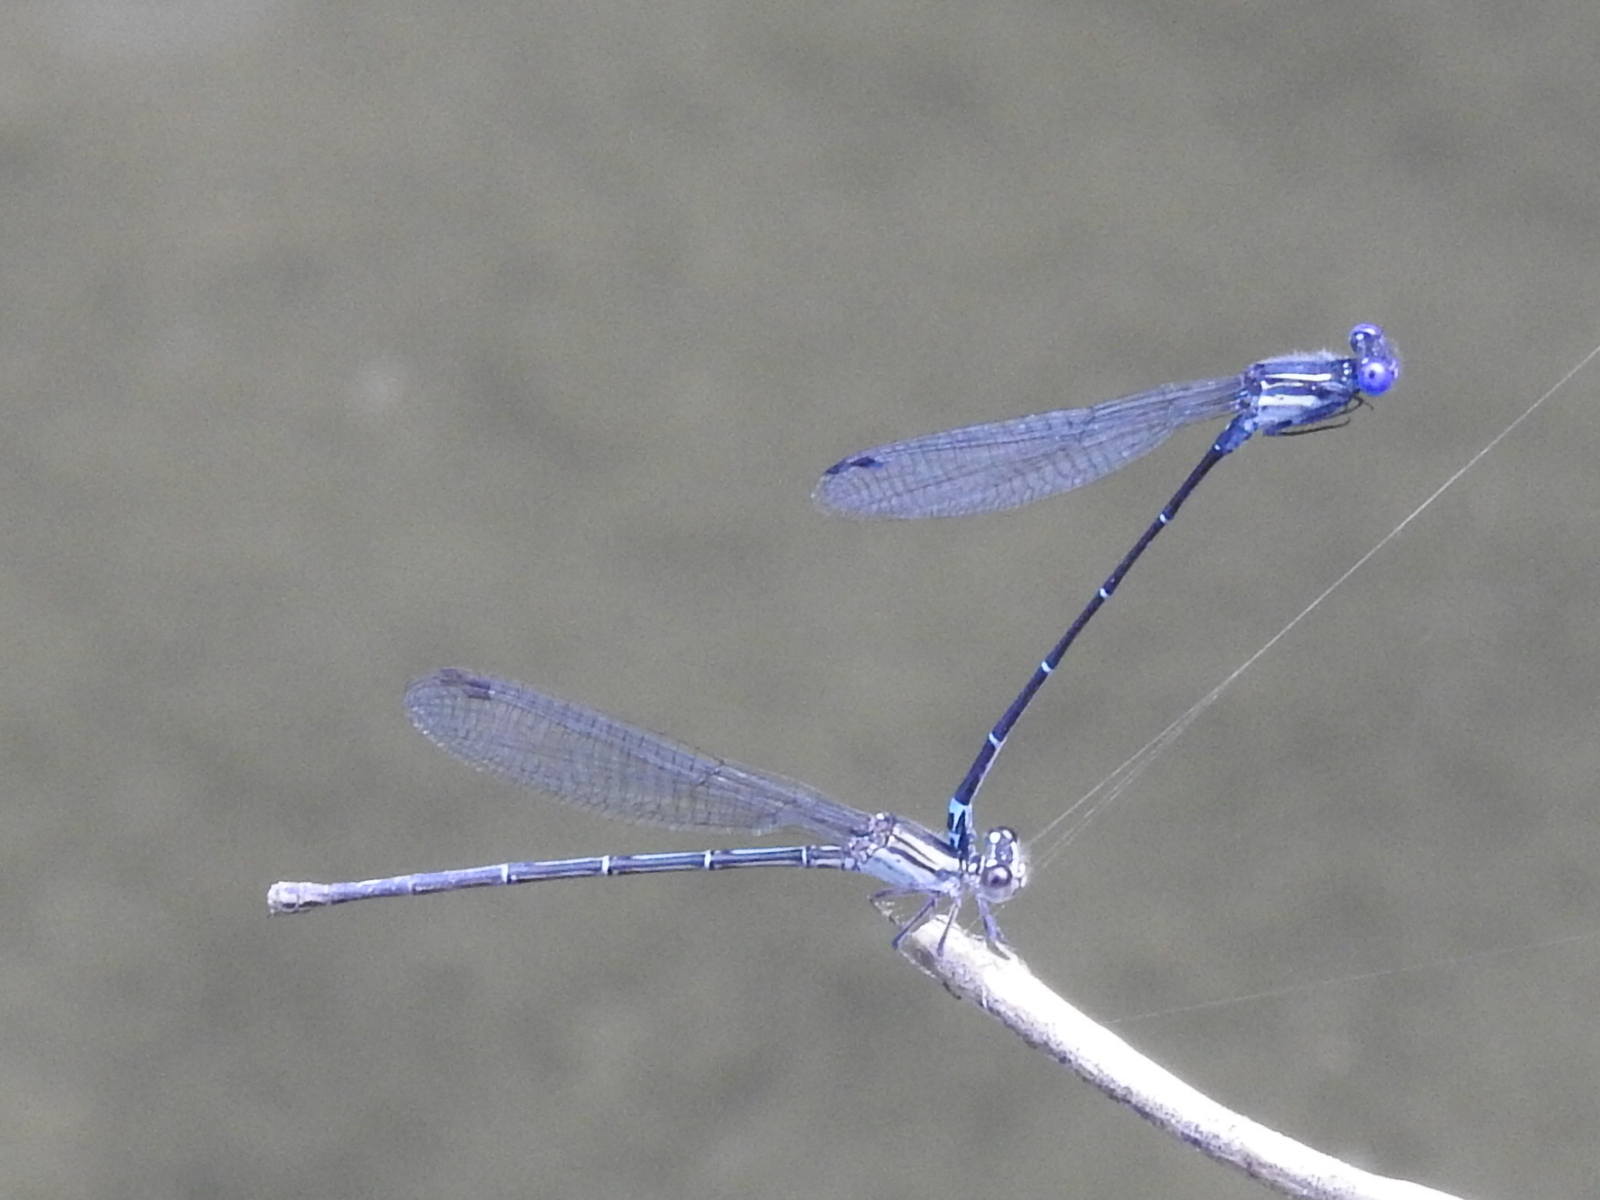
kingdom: Animalia
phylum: Arthropoda
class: Insecta
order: Odonata
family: Coenagrionidae
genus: Argia
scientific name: Argia translata
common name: Dusky dancer
